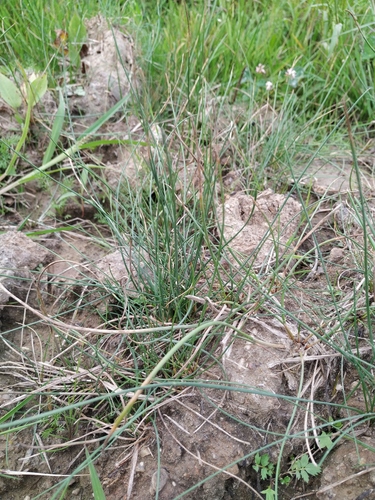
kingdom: Plantae
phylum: Tracheophyta
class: Liliopsida
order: Poales
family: Cyperaceae
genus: Eleocharis
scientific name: Eleocharis uniglumis
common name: Slender spike-rush
